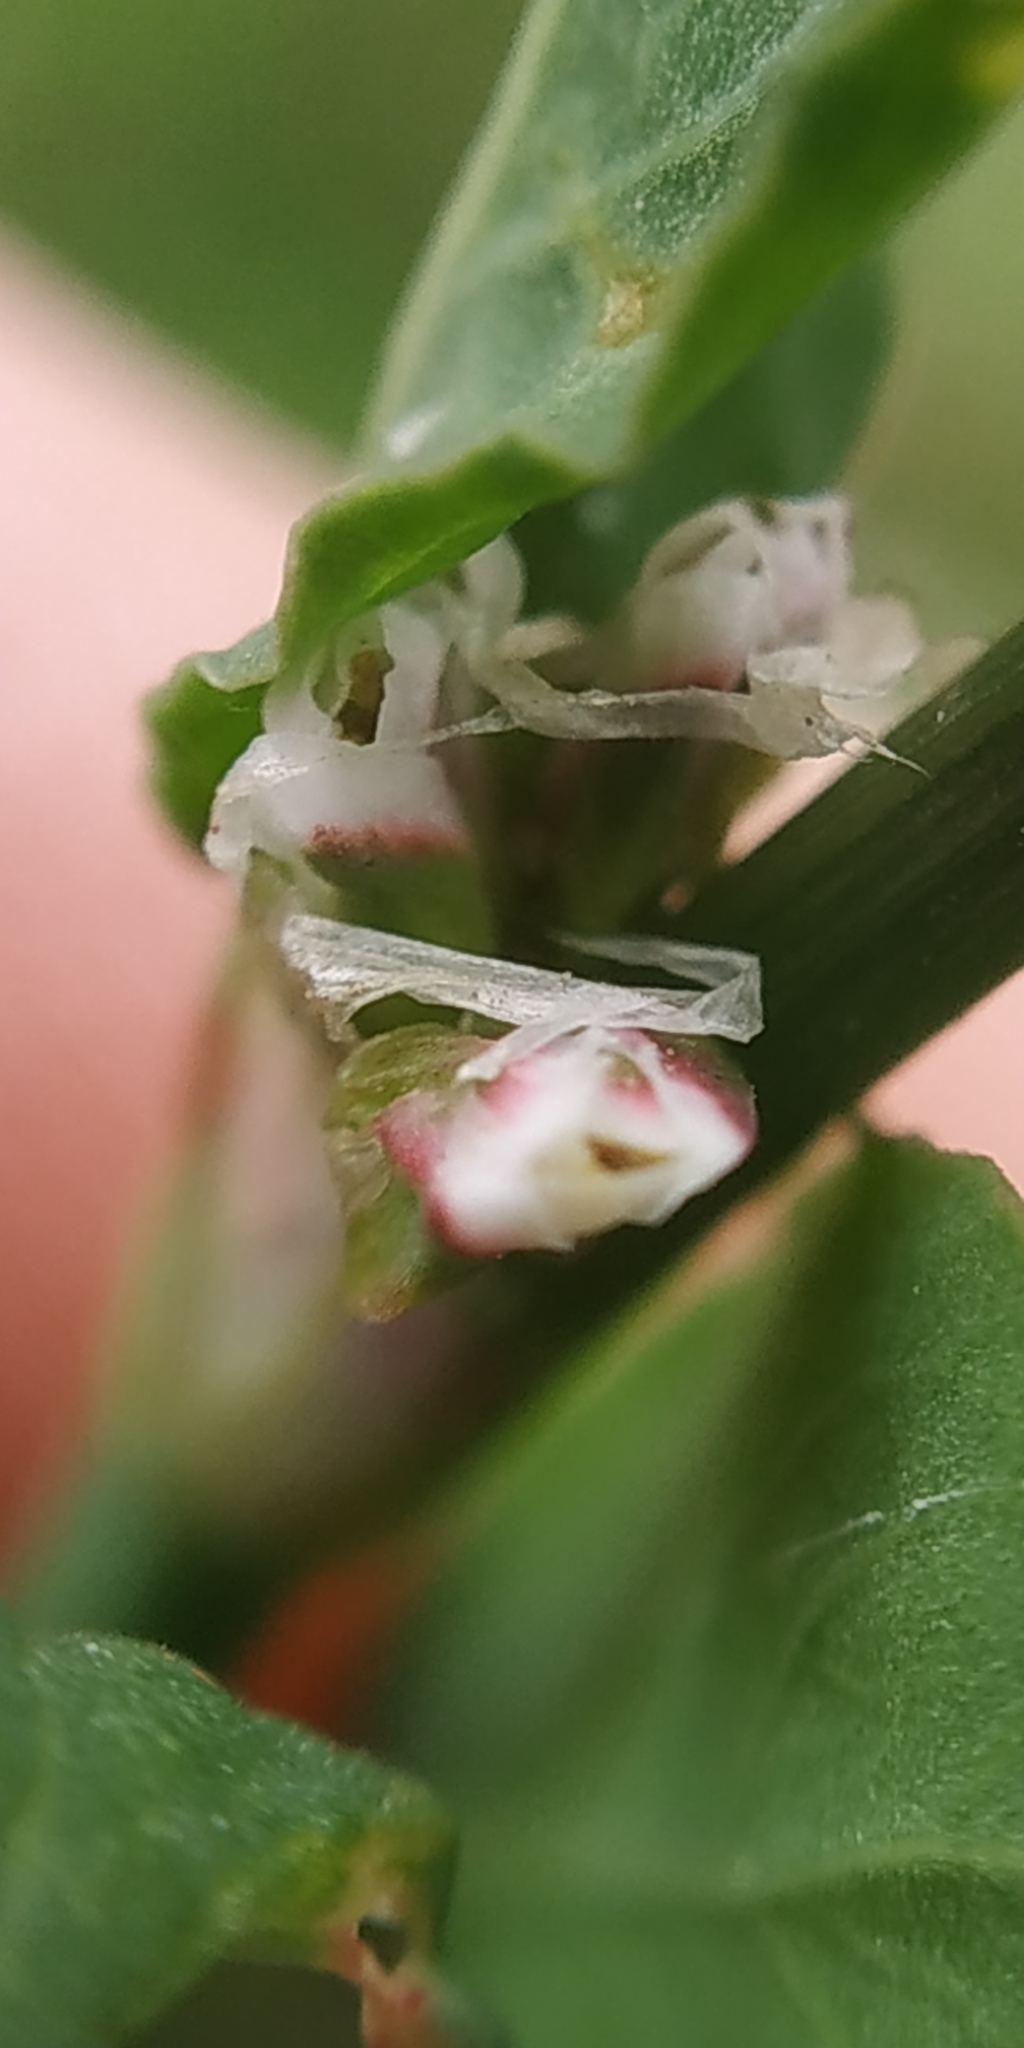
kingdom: Plantae
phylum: Tracheophyta
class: Magnoliopsida
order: Caryophyllales
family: Polygonaceae
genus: Polygonum
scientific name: Polygonum aviculare
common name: Prostrate knotweed
